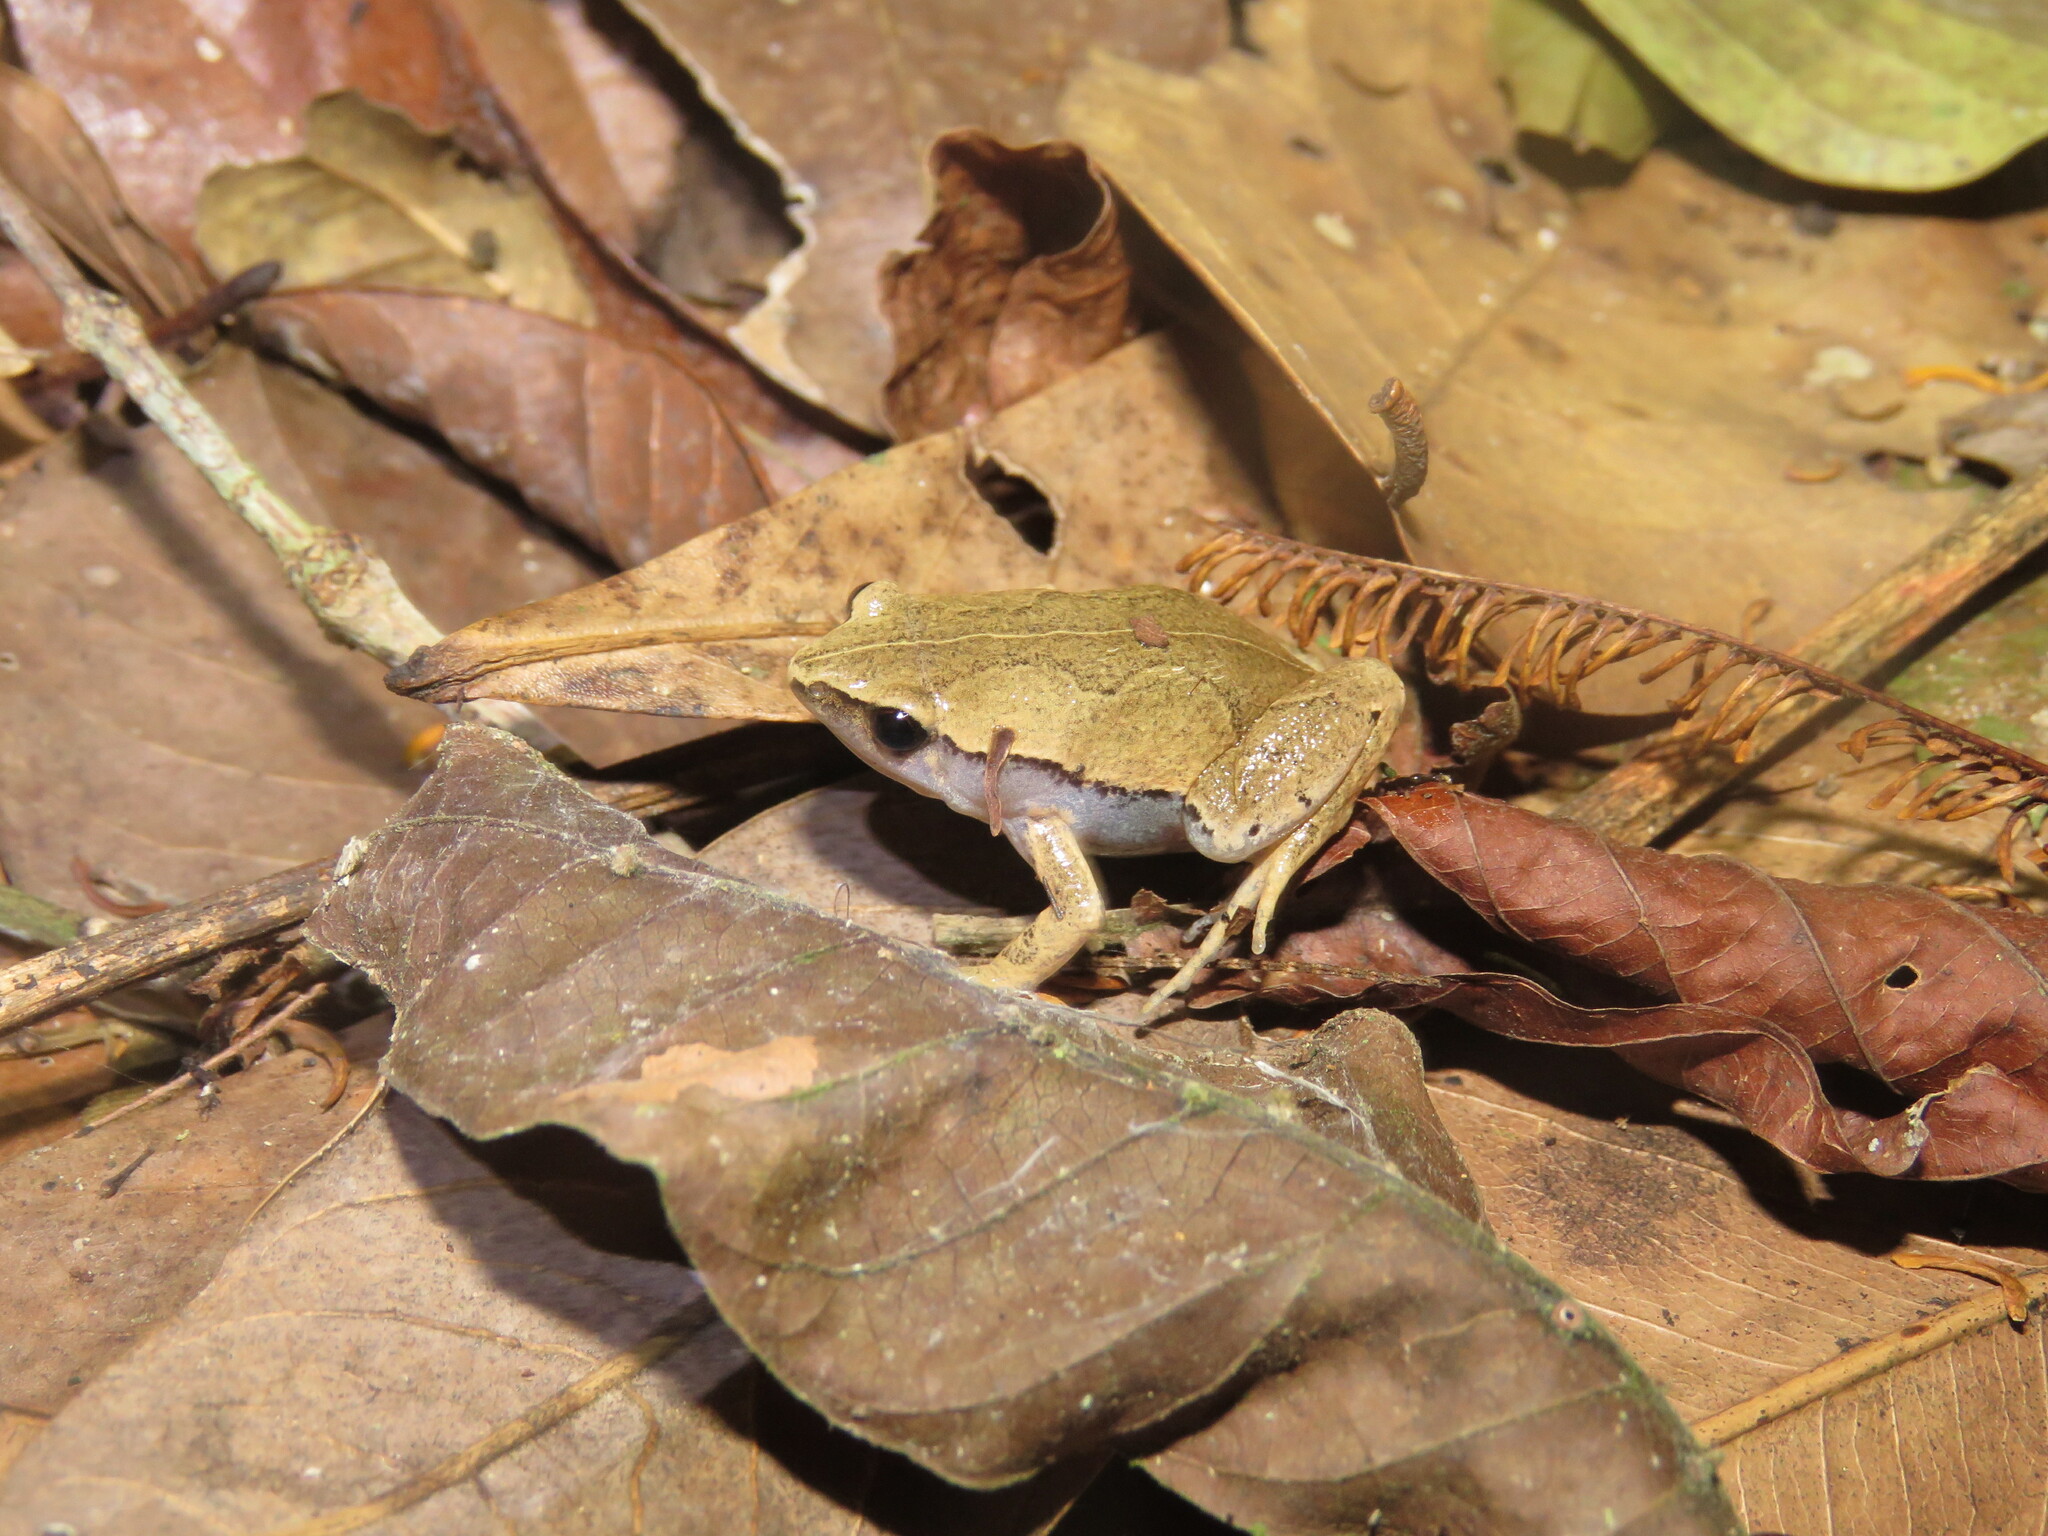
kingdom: Animalia
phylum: Chordata
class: Amphibia
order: Anura
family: Microhylidae
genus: Hamptophryne
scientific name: Hamptophryne boliviana
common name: Bolivian bleating frog
